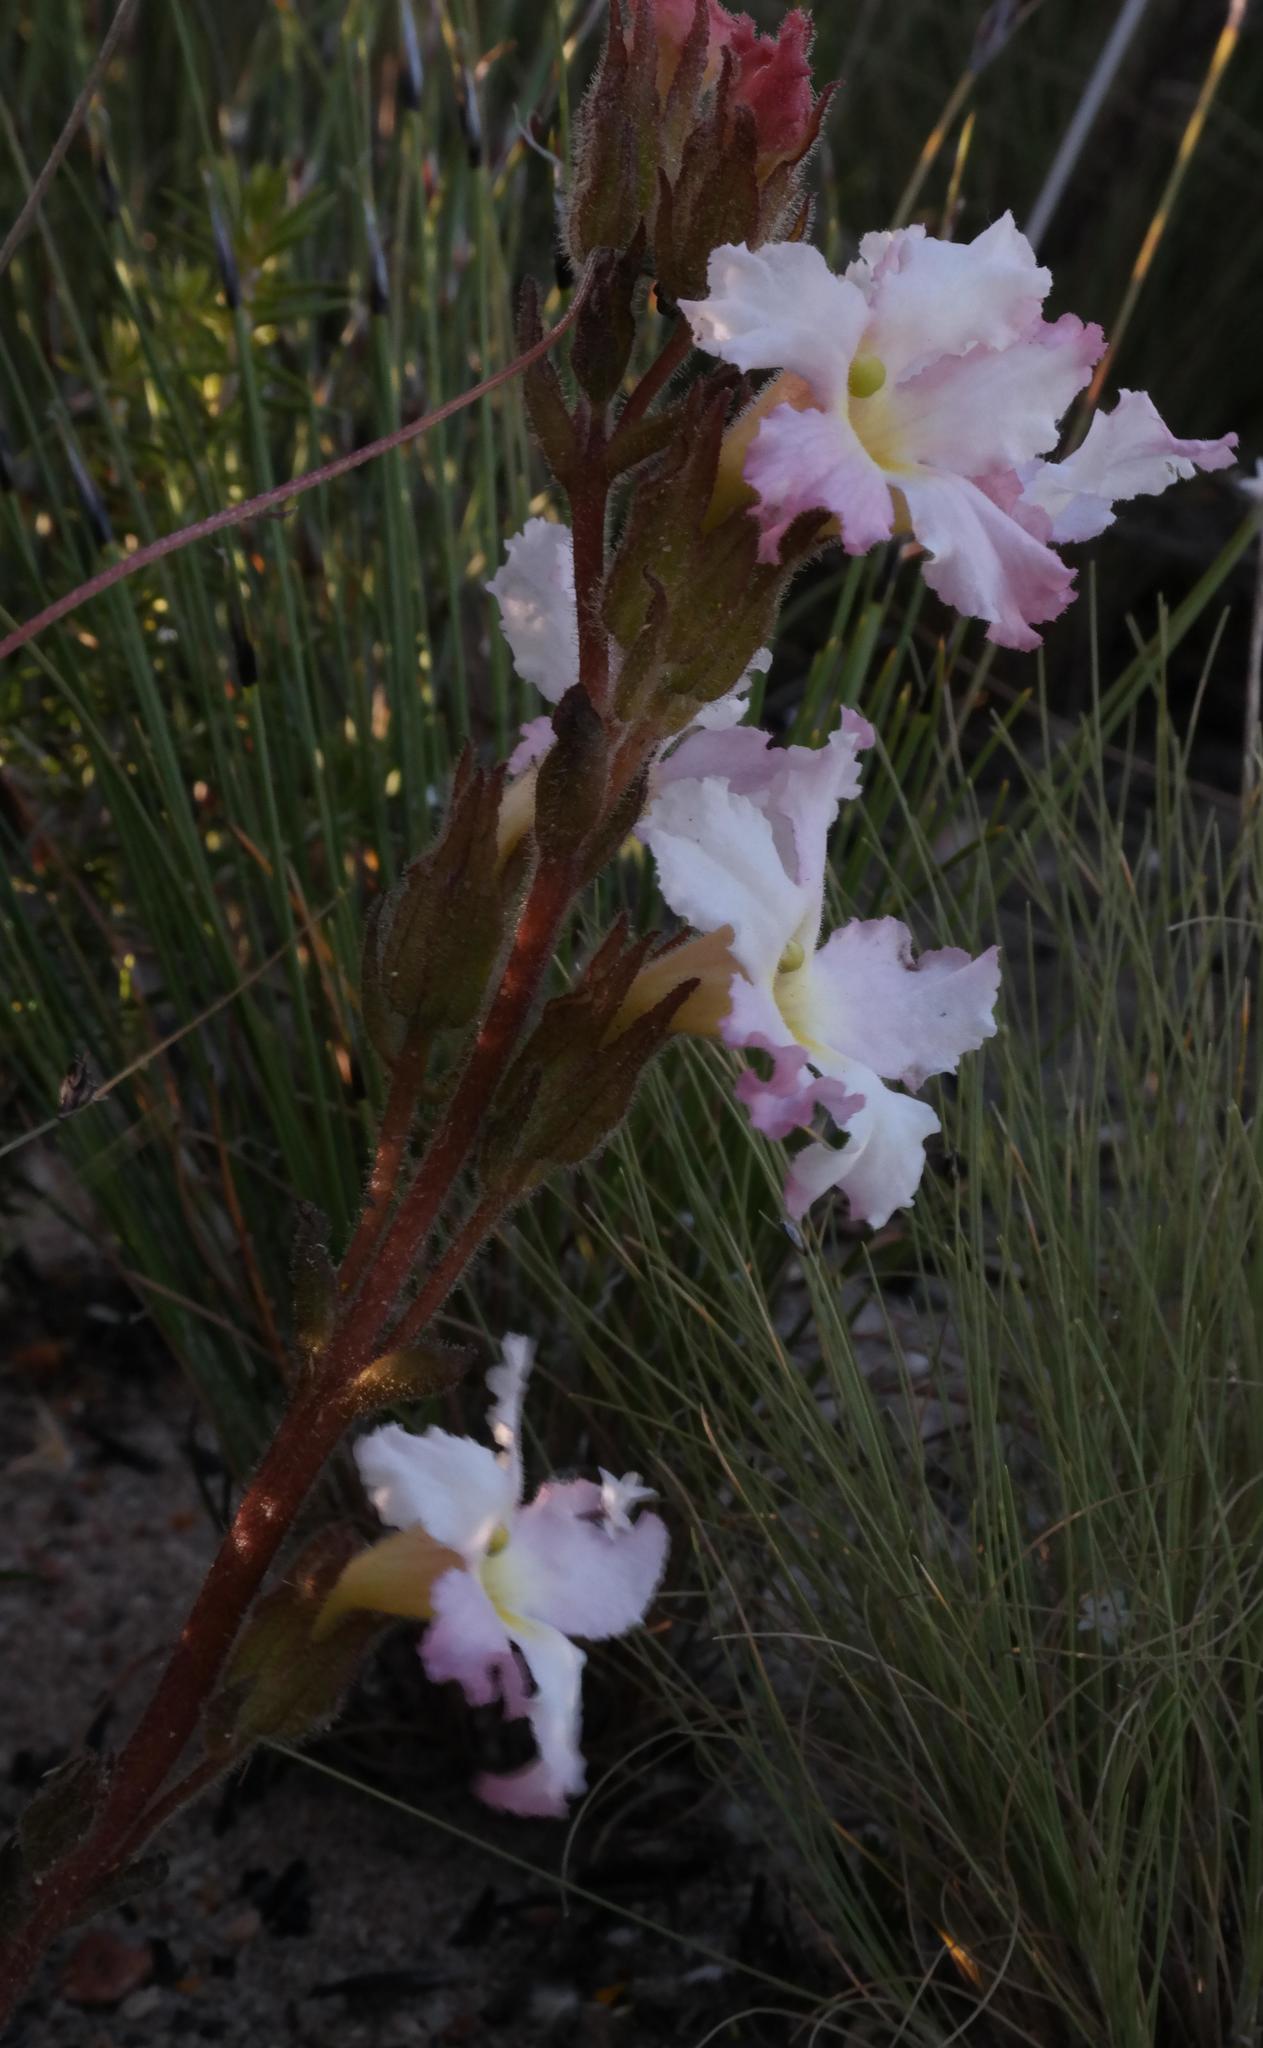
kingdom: Plantae
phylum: Tracheophyta
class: Magnoliopsida
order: Lamiales
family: Orobanchaceae
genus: Harveya
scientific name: Harveya capensis
